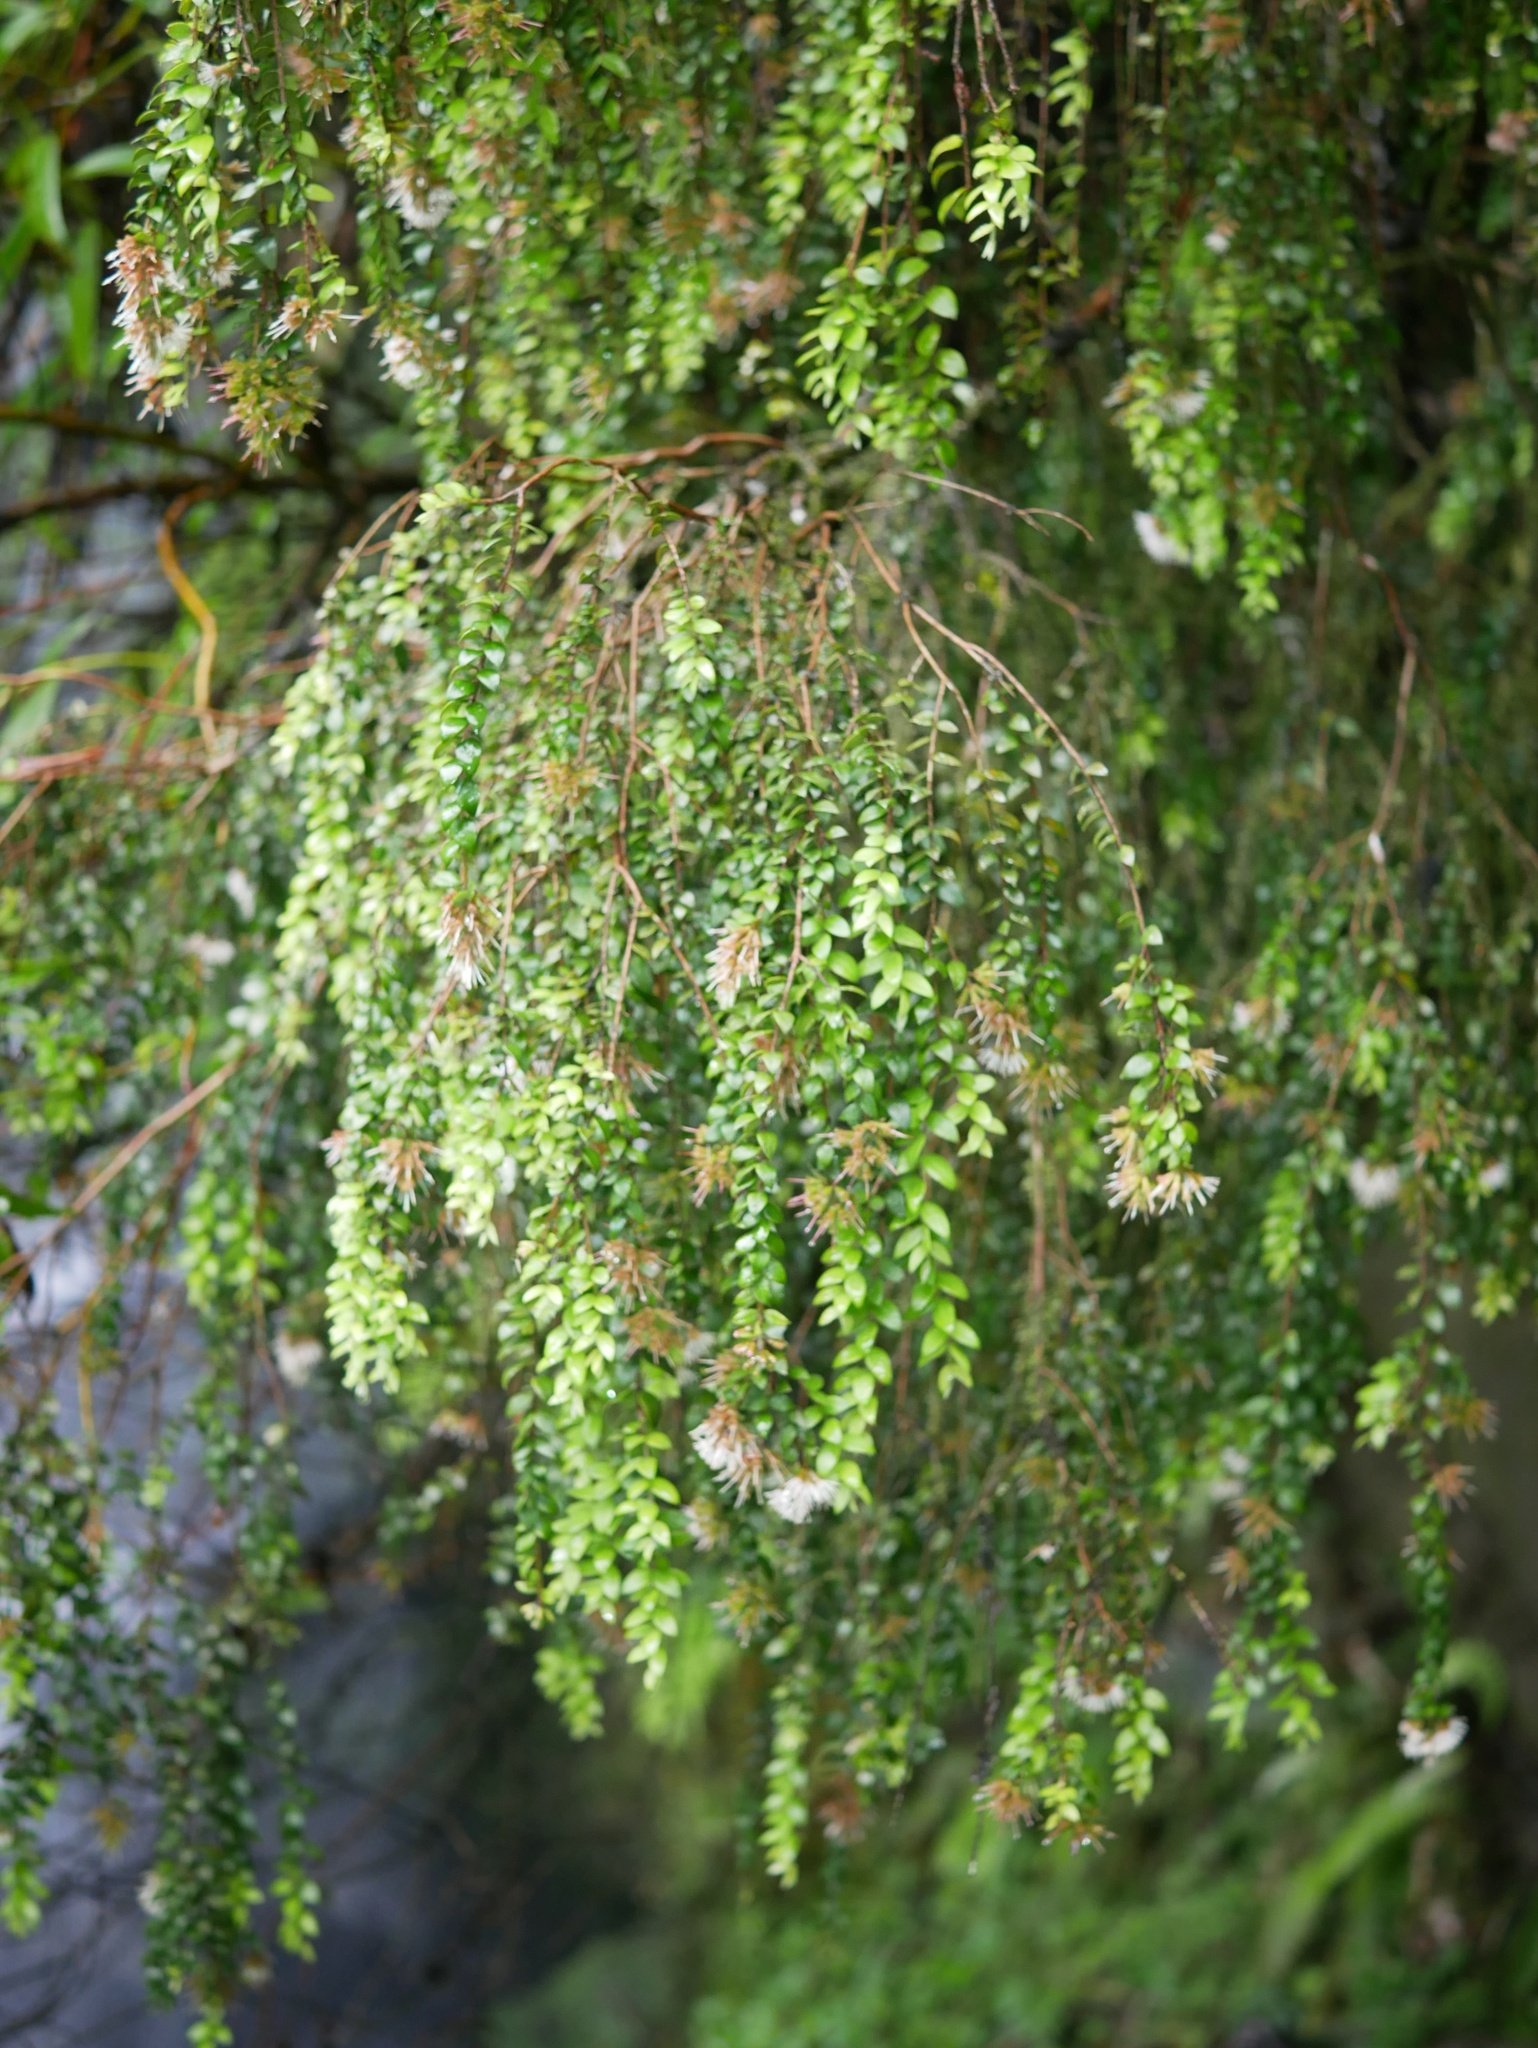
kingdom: Plantae
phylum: Tracheophyta
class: Magnoliopsida
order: Myrtales
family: Myrtaceae
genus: Metrosideros
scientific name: Metrosideros colensoi
